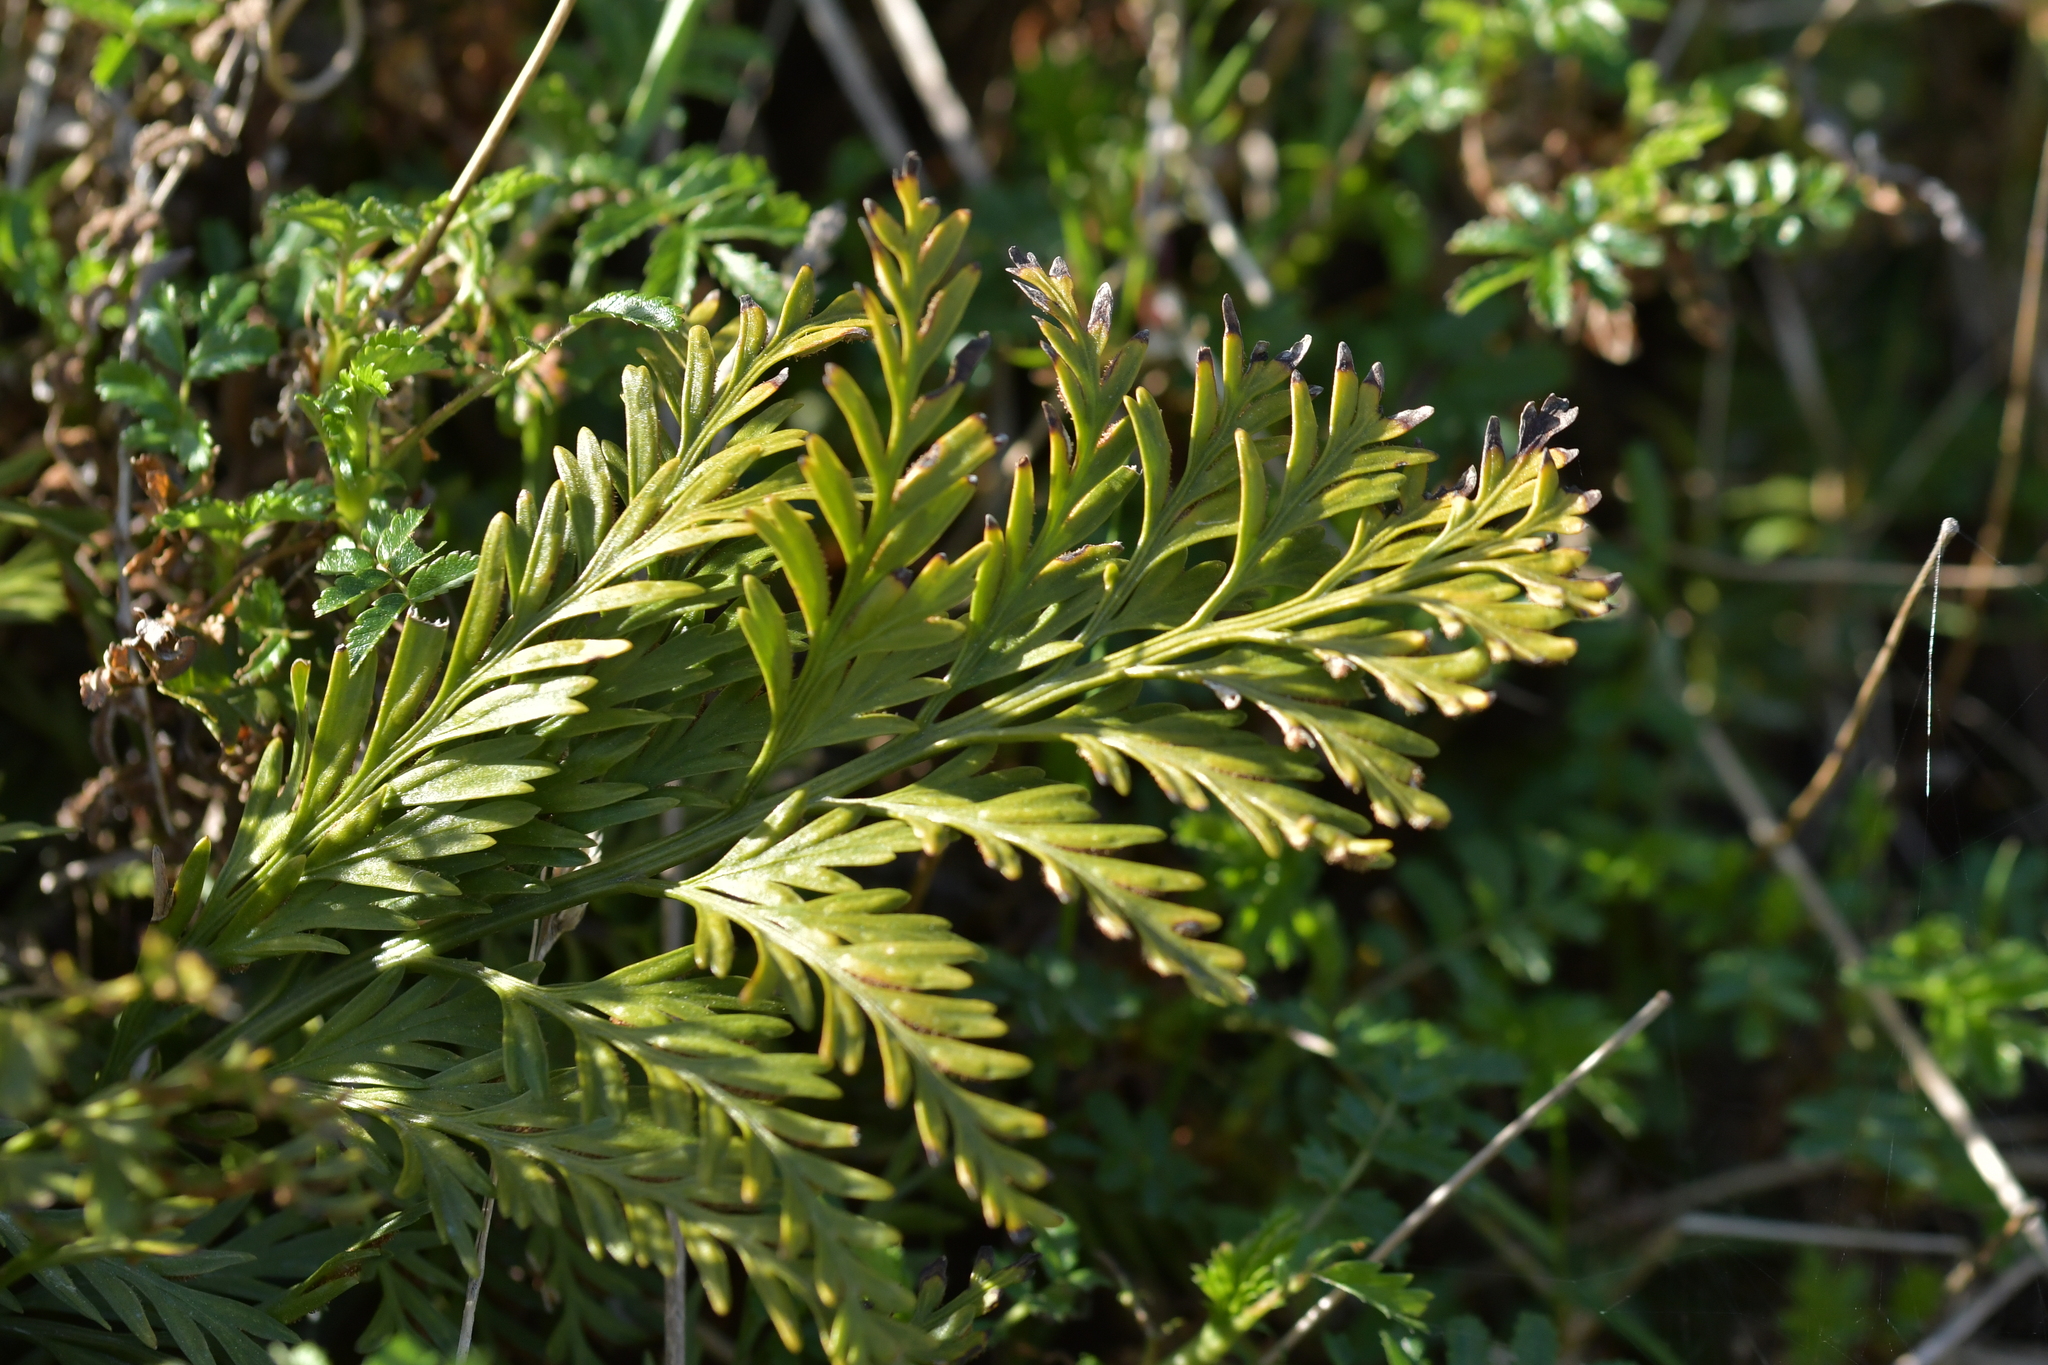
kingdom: Plantae
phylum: Tracheophyta
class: Polypodiopsida
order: Polypodiales
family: Aspleniaceae
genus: Asplenium
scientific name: Asplenium appendiculatum
